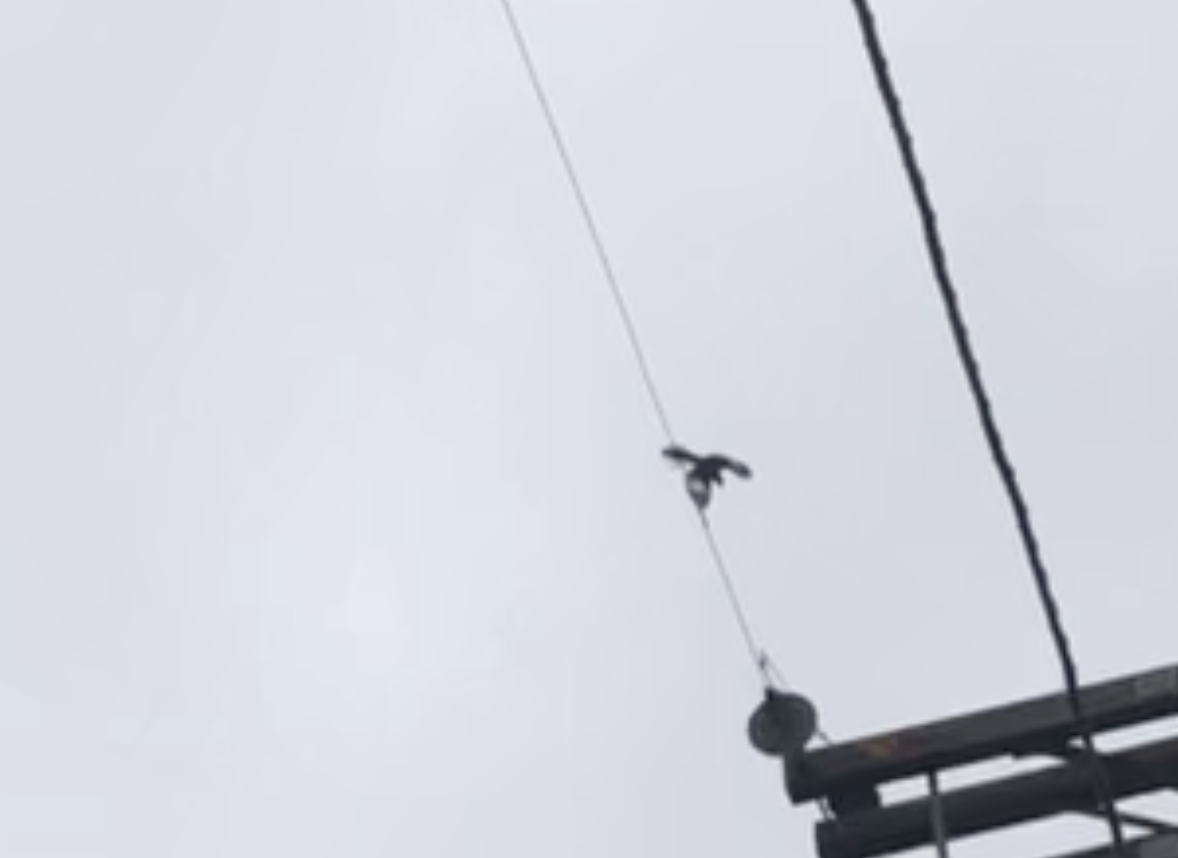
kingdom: Animalia
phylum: Chordata
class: Aves
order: Passeriformes
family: Mimidae
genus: Mimus
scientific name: Mimus polyglottos
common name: Northern mockingbird
